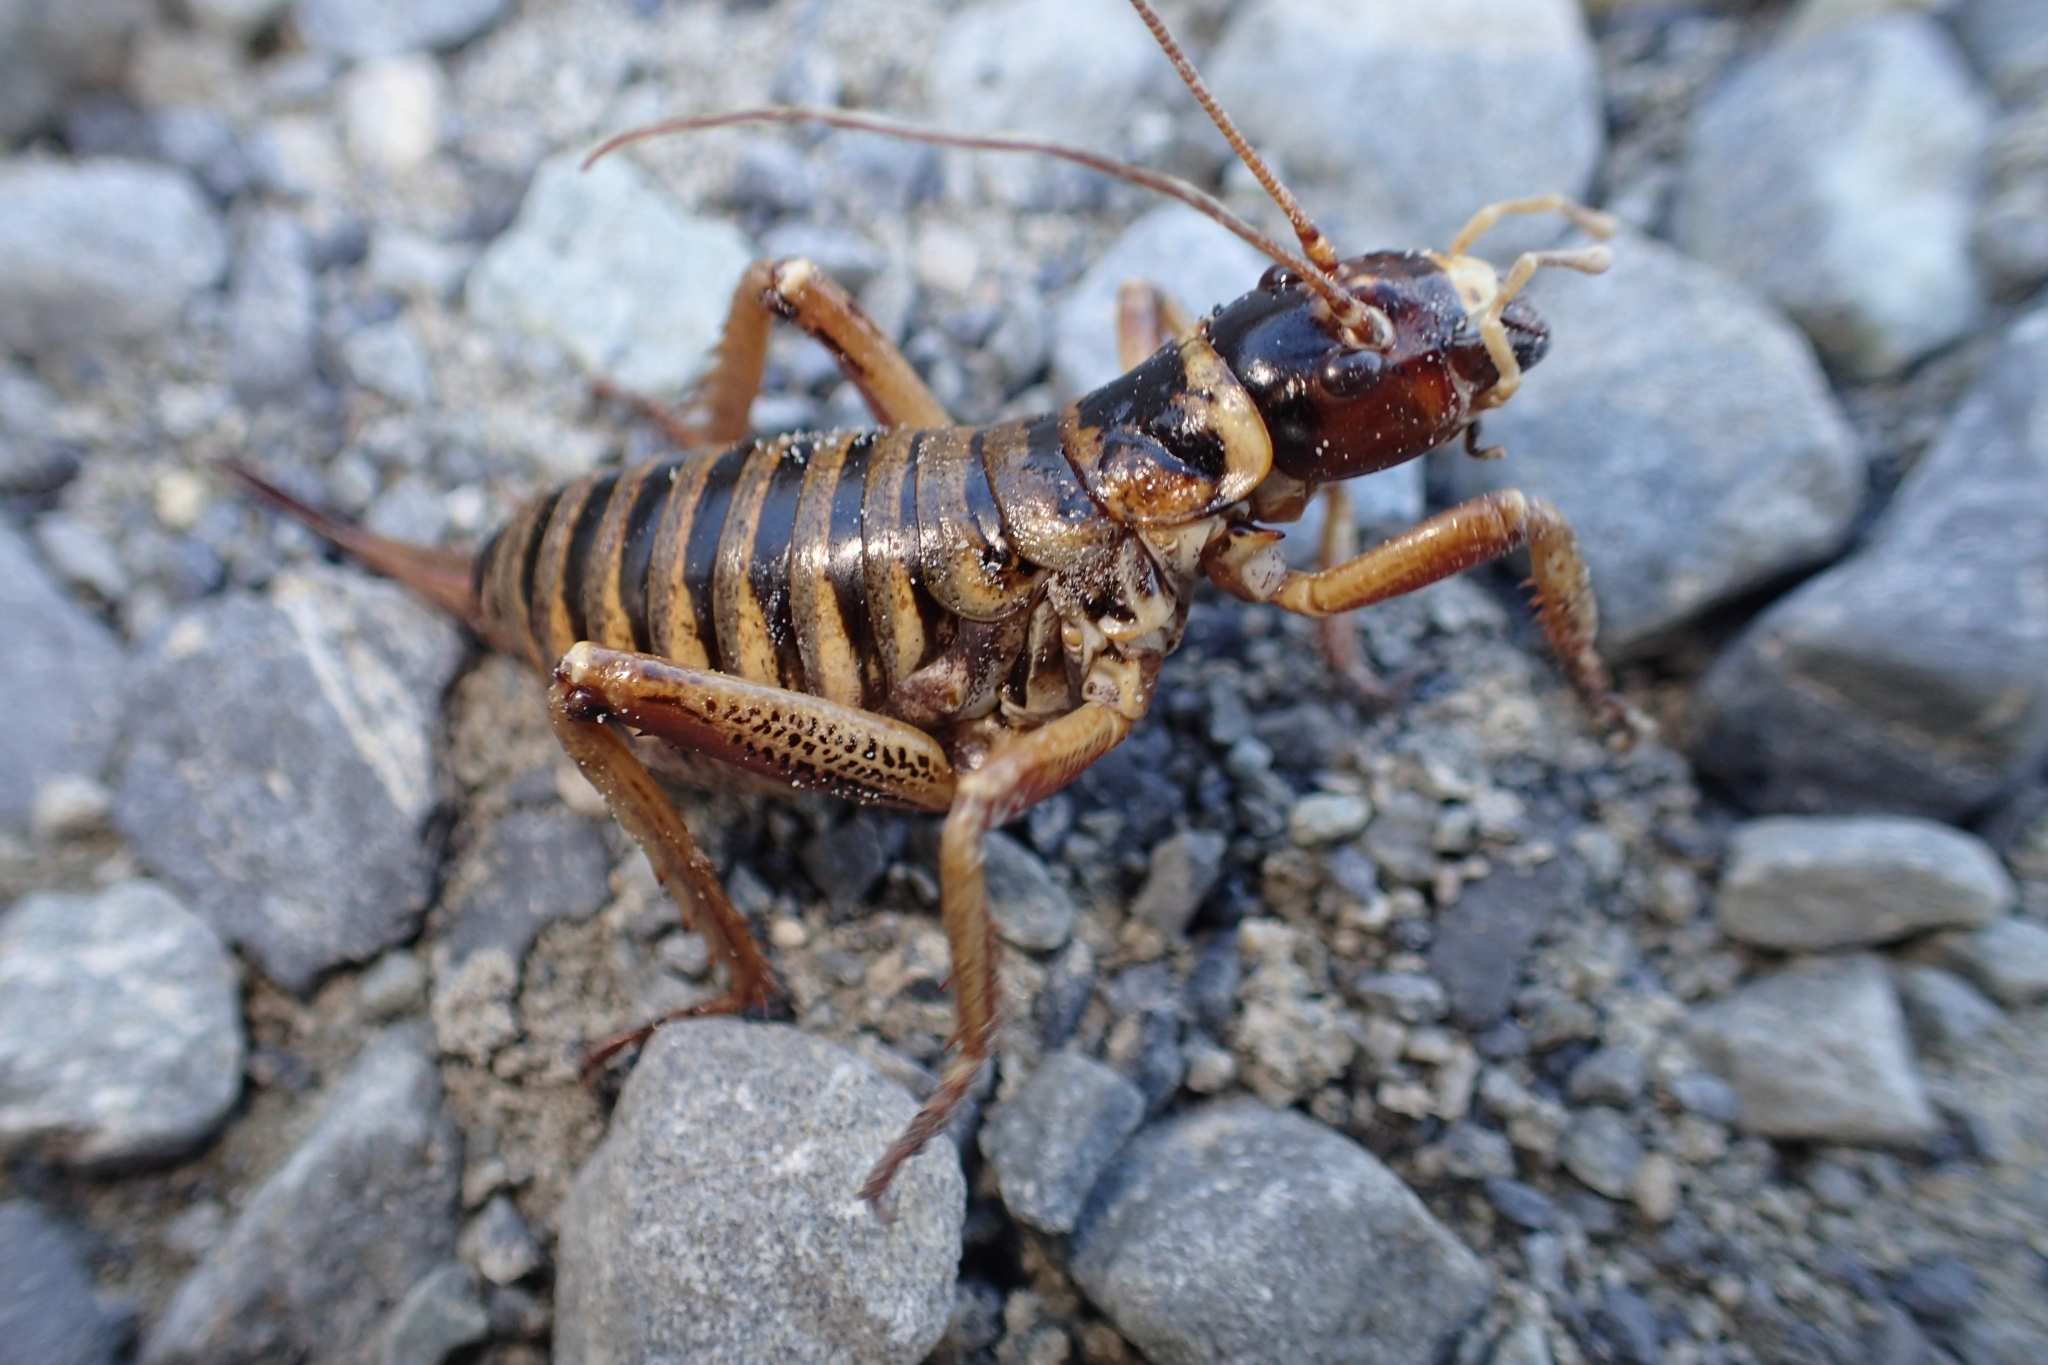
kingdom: Animalia
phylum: Arthropoda
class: Insecta
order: Orthoptera
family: Anostostomatidae
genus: Hemideina
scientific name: Hemideina maori
